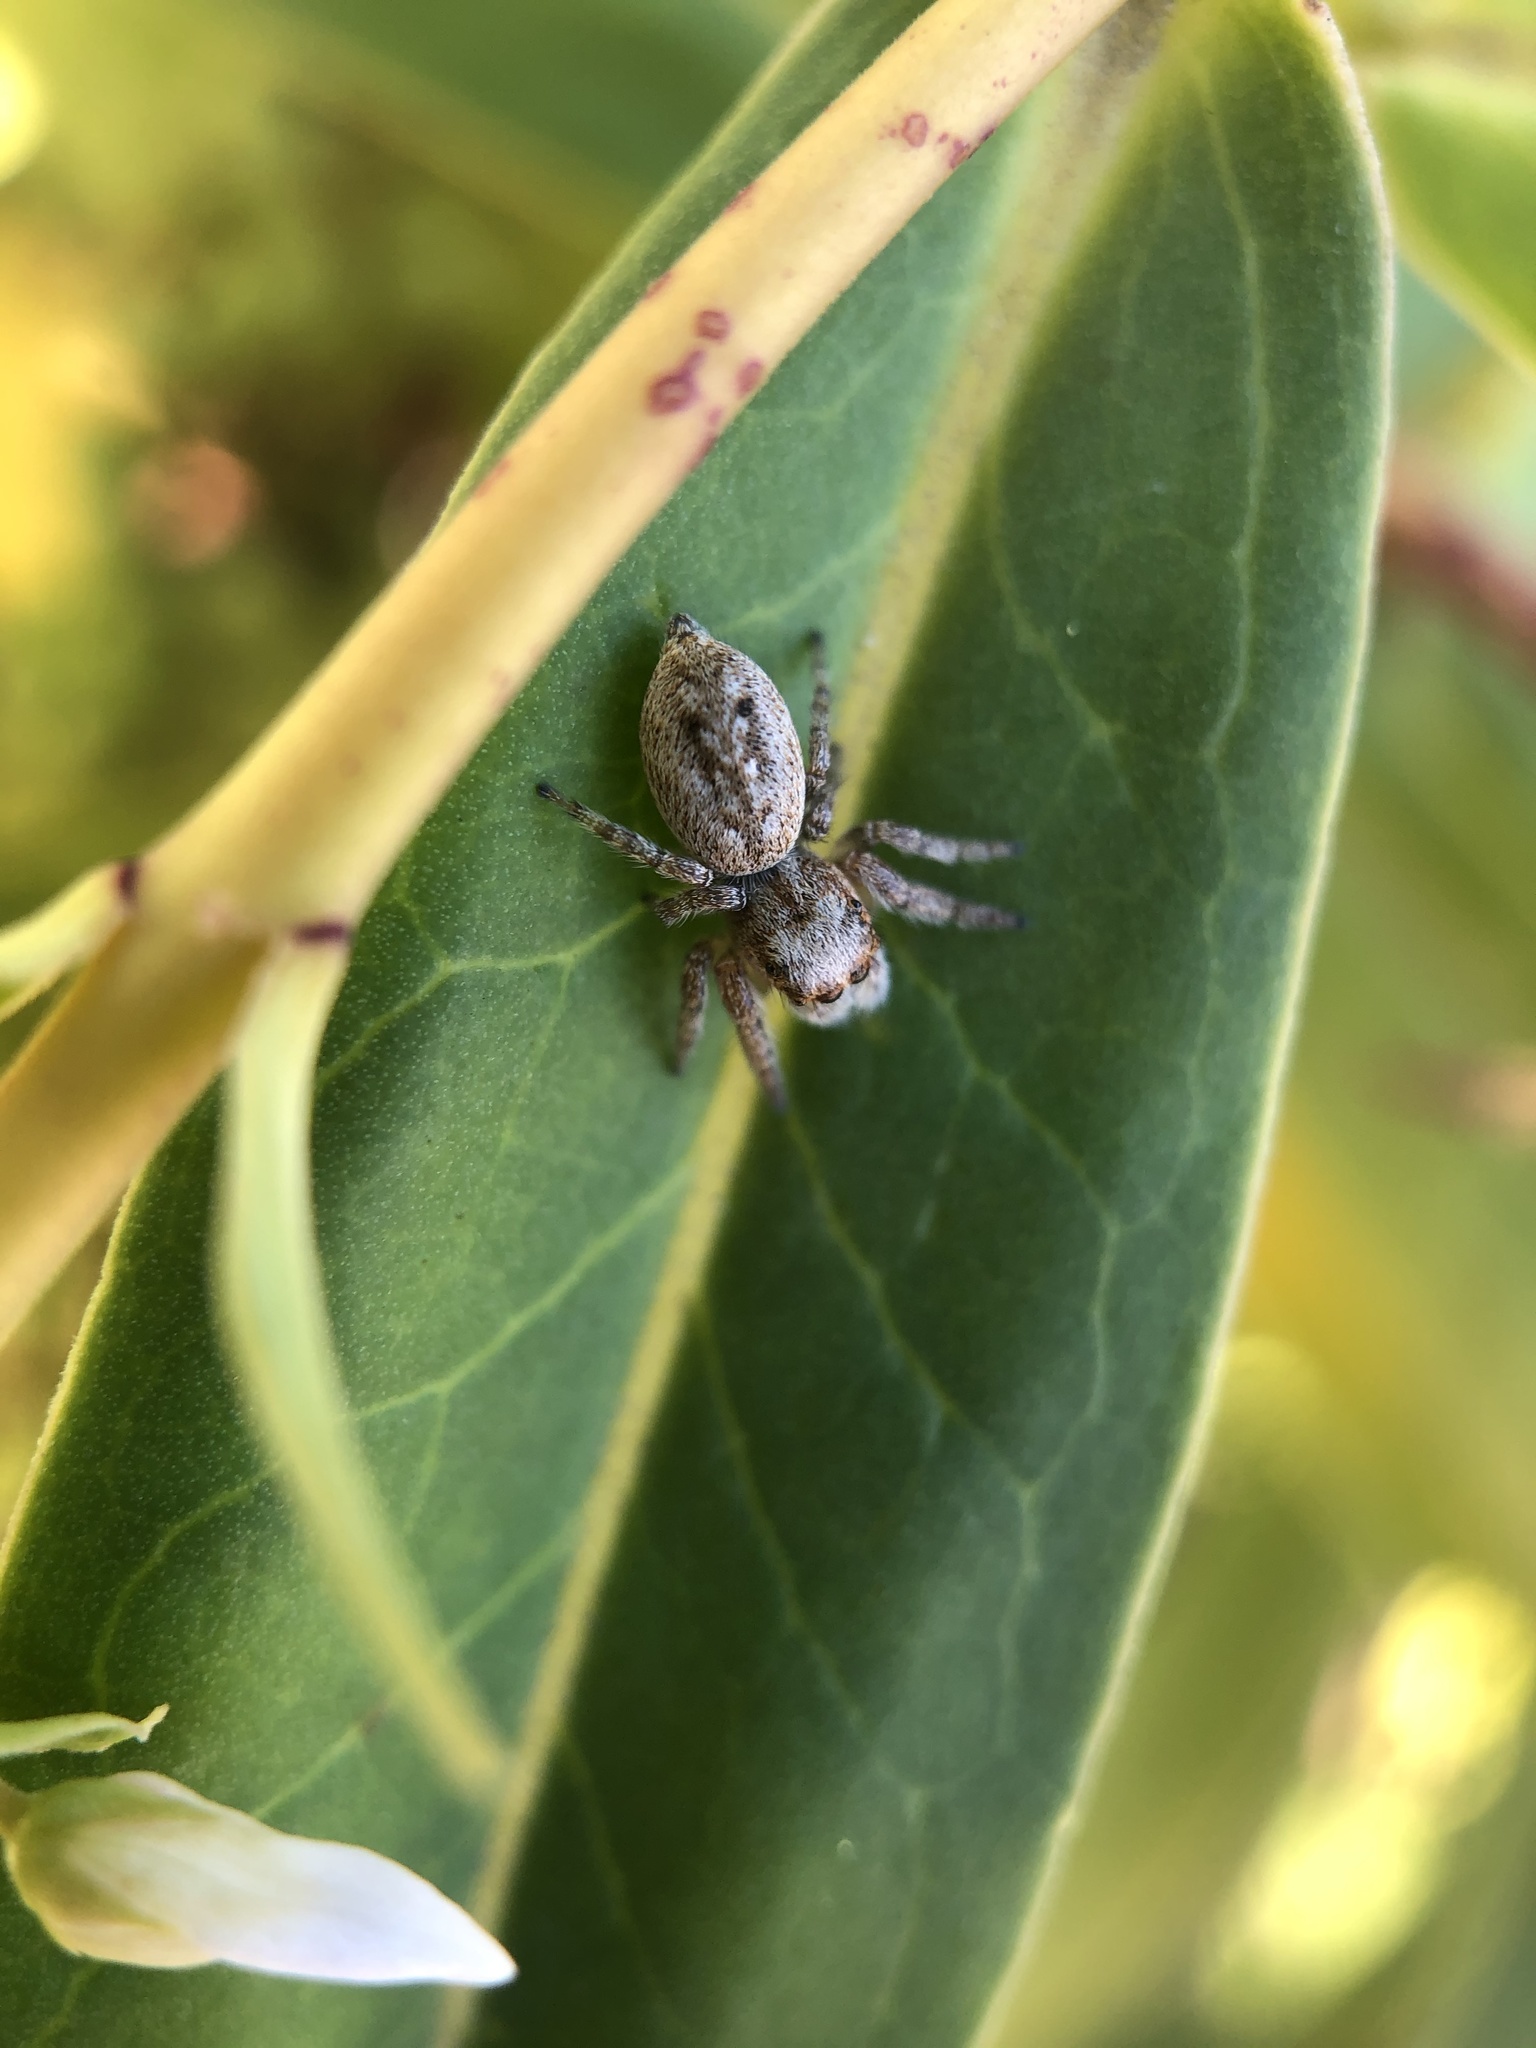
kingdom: Animalia
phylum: Arthropoda
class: Arachnida
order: Araneae
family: Salticidae
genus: Opisthoncus
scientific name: Opisthoncus polyphemus
